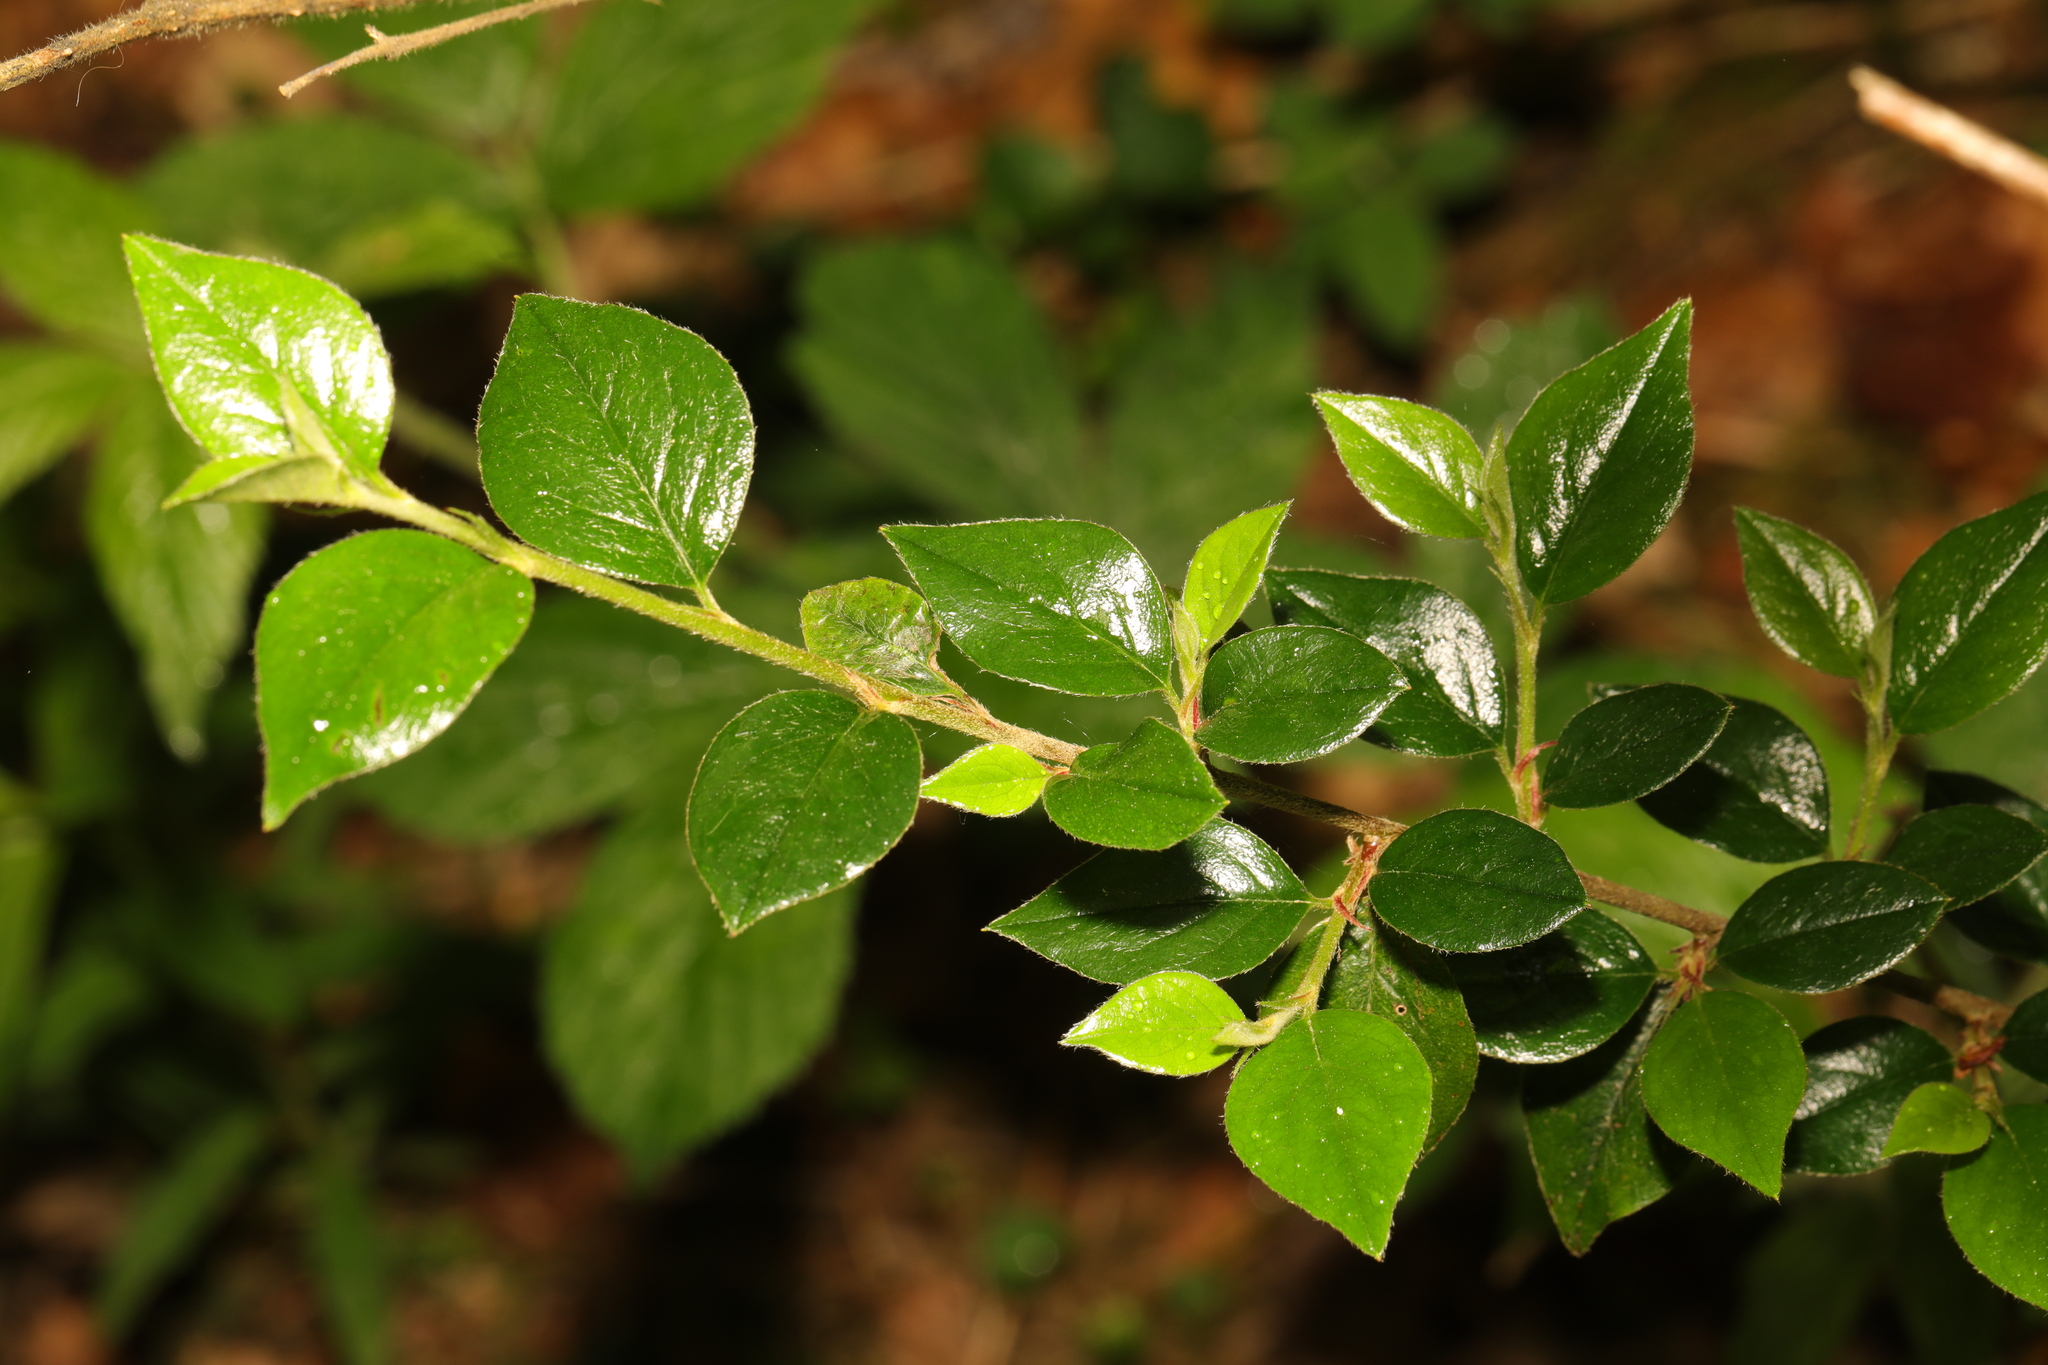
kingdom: Plantae
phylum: Tracheophyta
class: Magnoliopsida
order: Rosales
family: Rosaceae
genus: Cotoneaster
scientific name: Cotoneaster simonsii
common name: Himalayan cotoneaster
